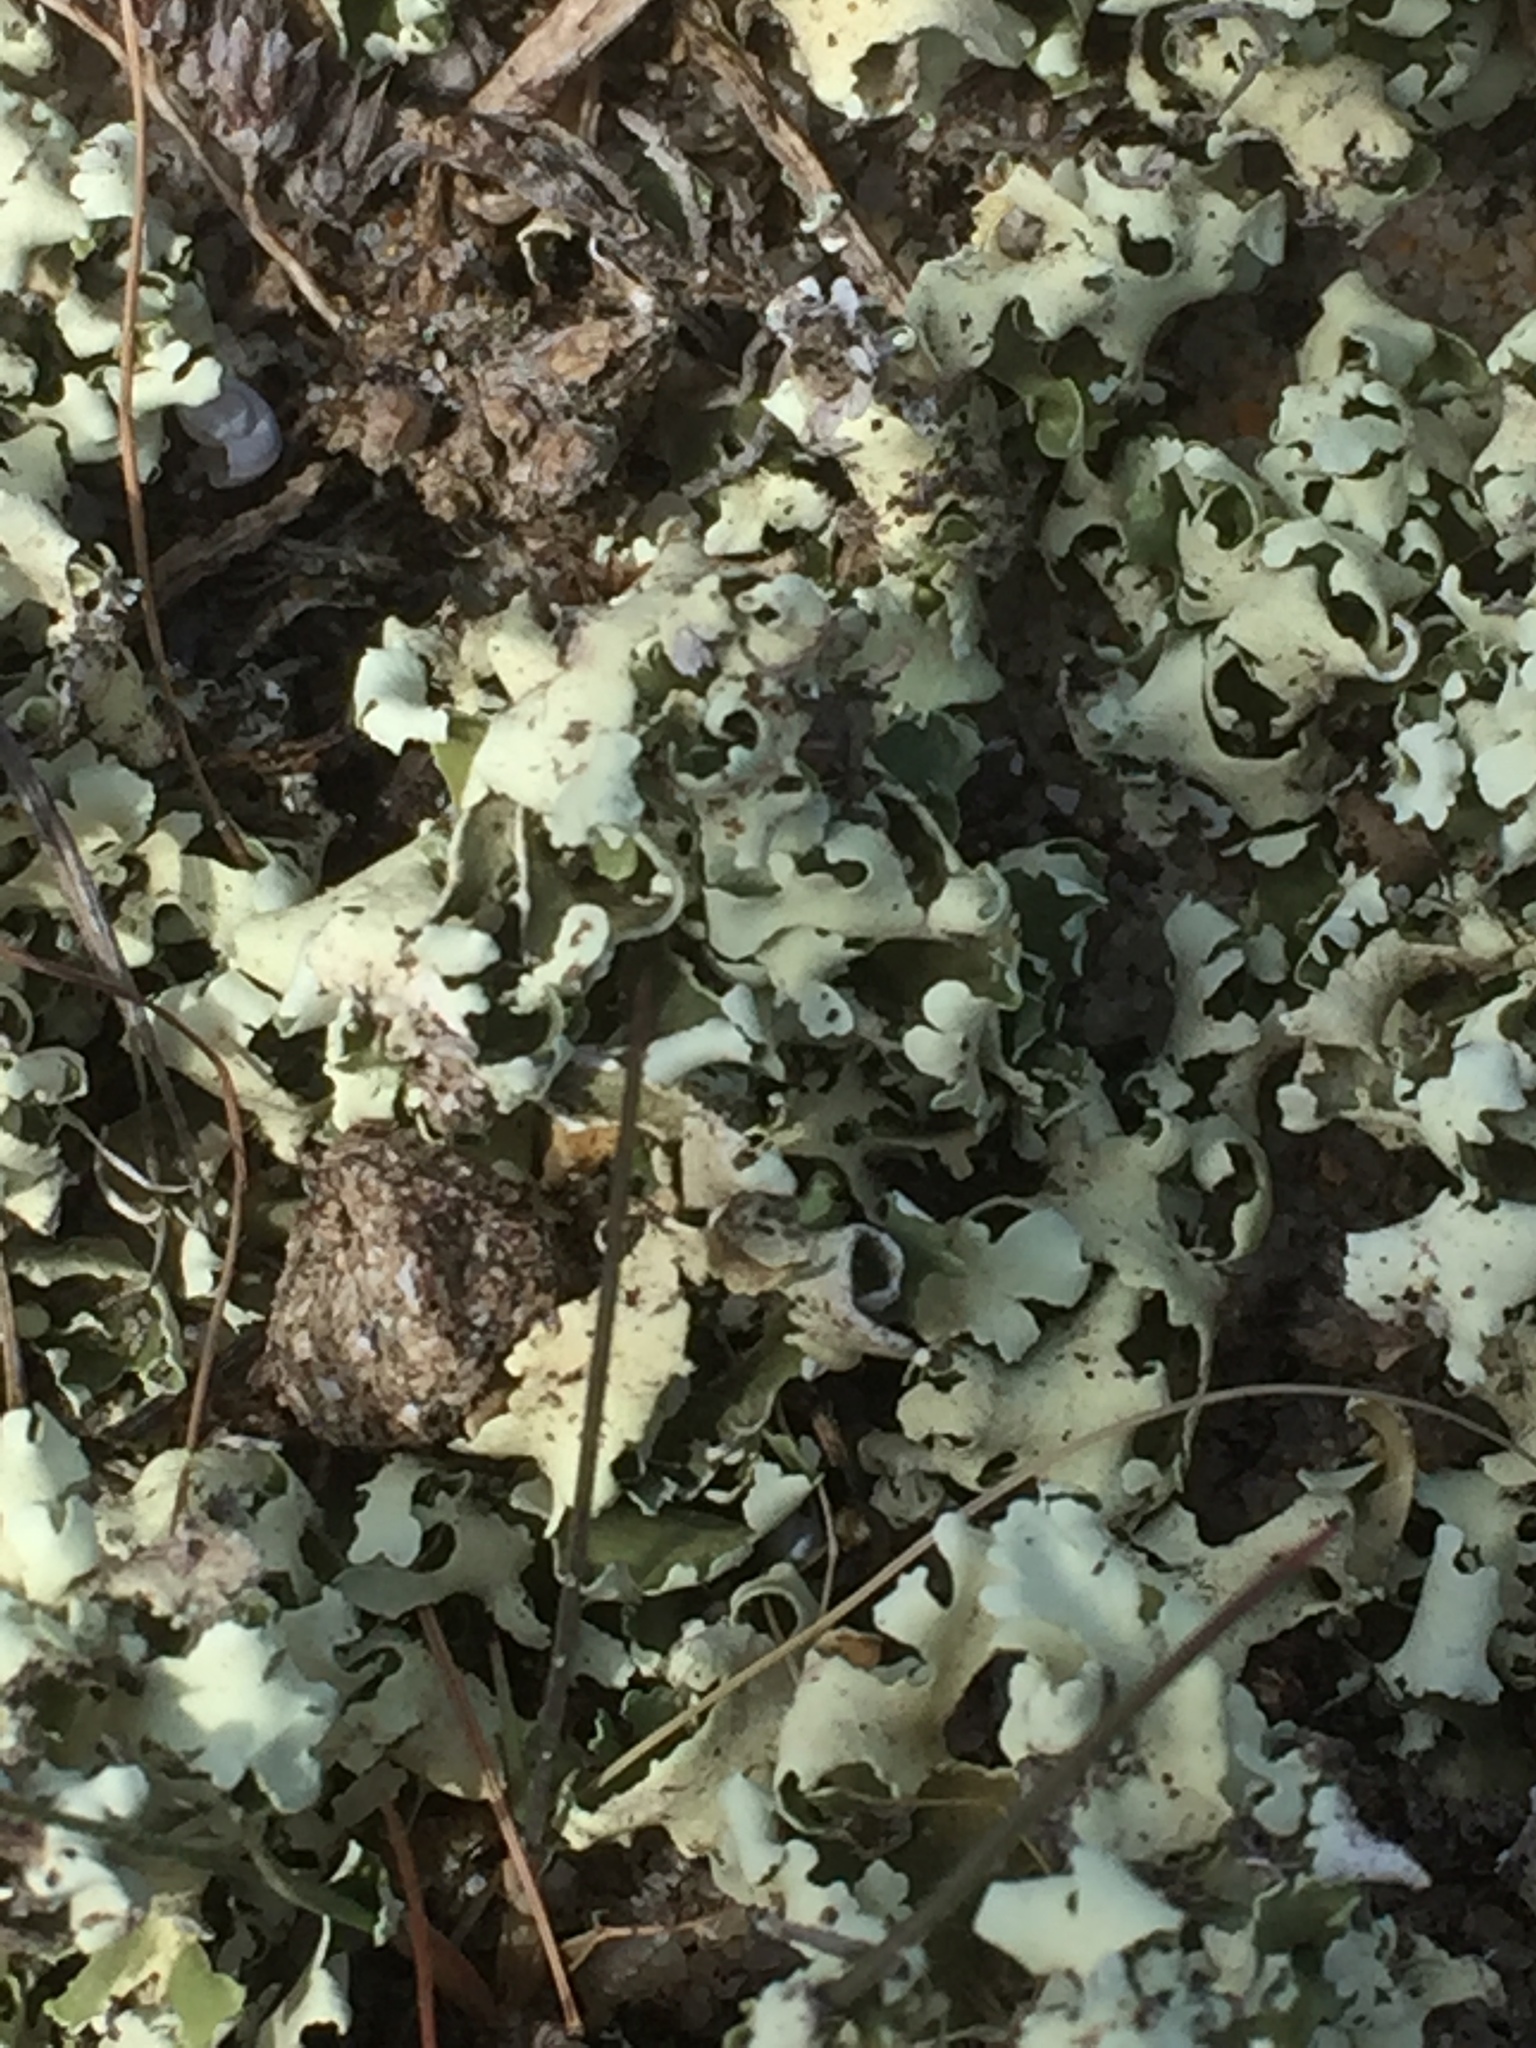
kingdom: Fungi
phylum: Ascomycota
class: Lecanoromycetes
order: Lecanorales
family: Cladoniaceae
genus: Cladonia
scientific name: Cladonia foliacea
